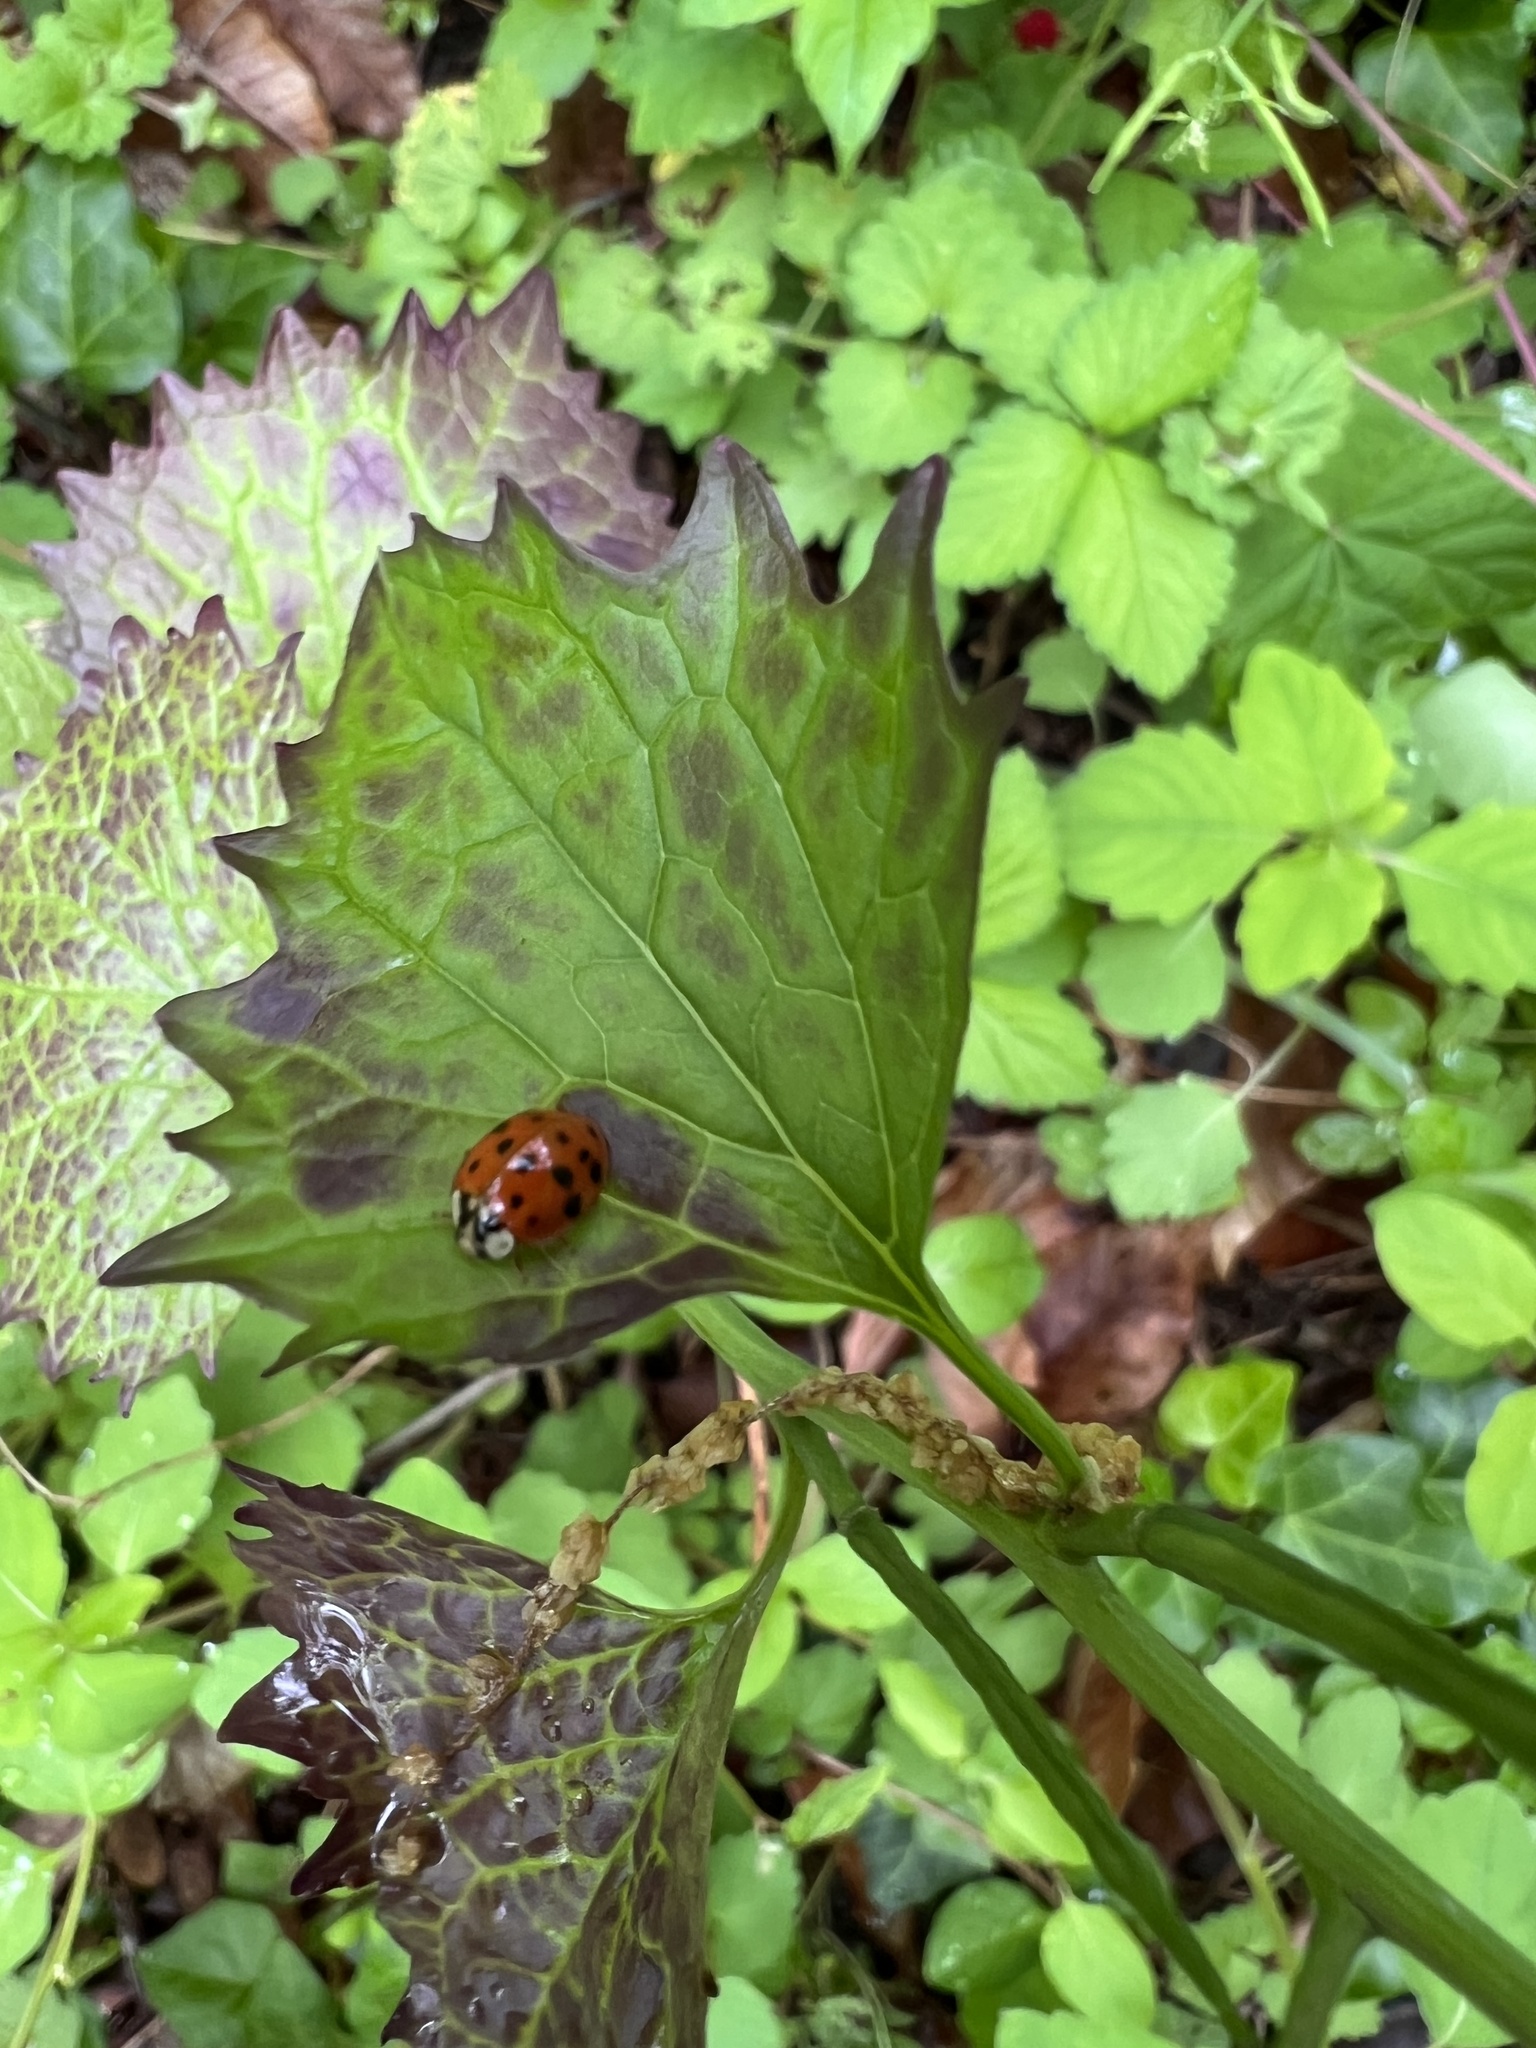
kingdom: Animalia
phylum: Arthropoda
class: Insecta
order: Coleoptera
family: Coccinellidae
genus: Harmonia
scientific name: Harmonia axyridis
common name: Harlequin ladybird
